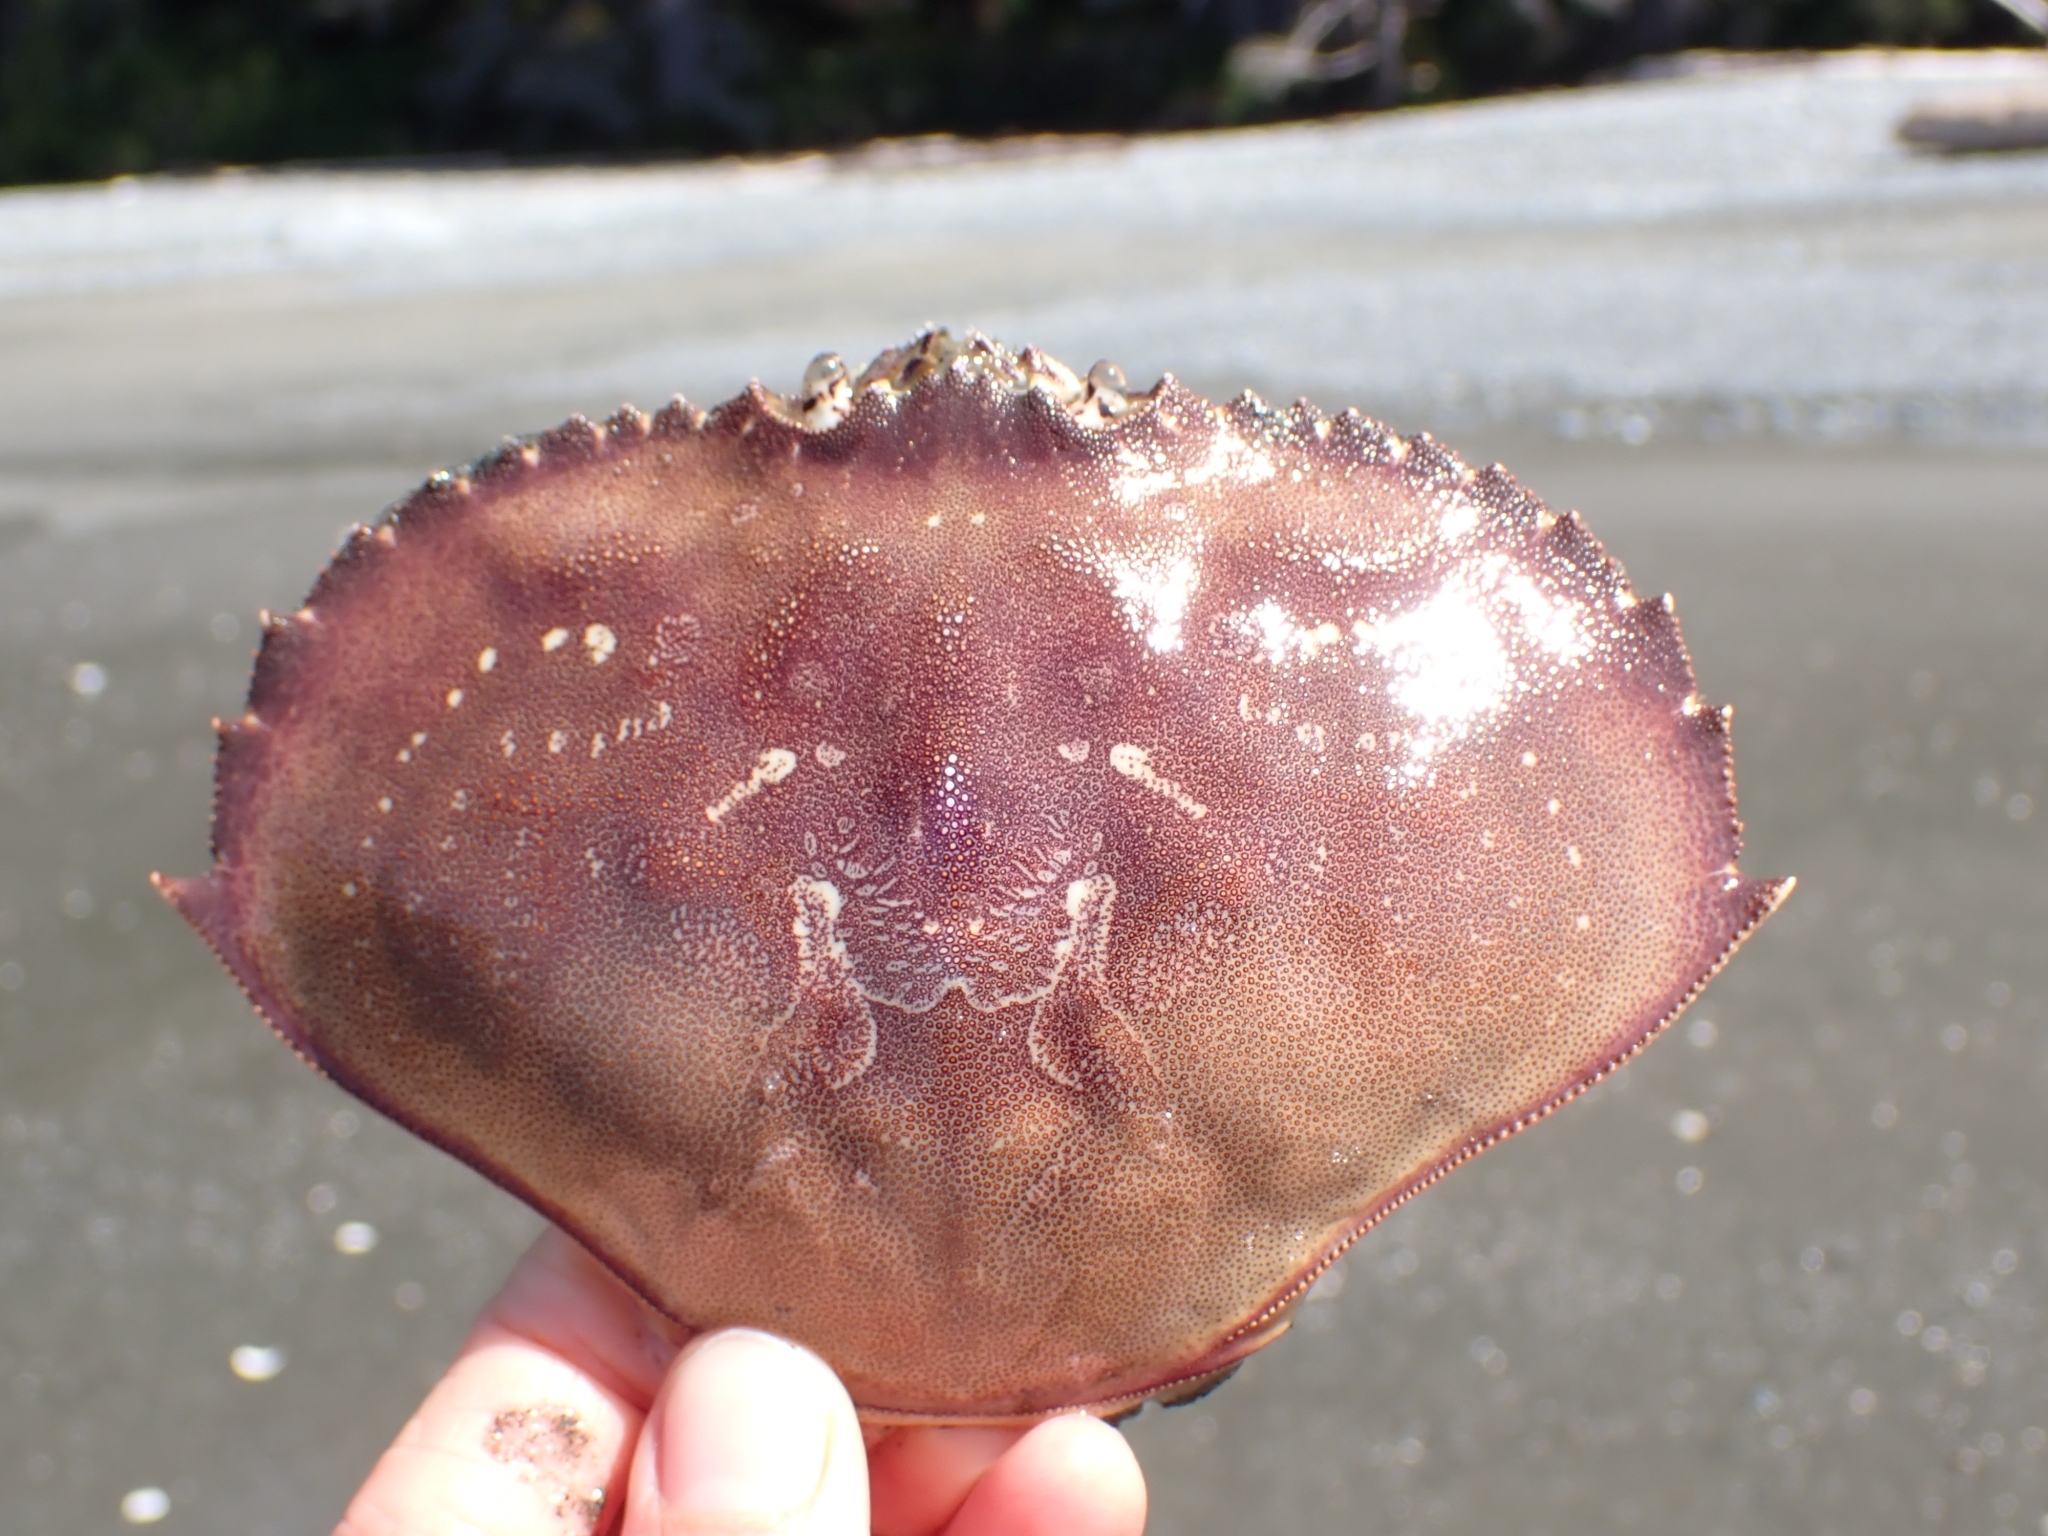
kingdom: Animalia
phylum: Arthropoda
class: Malacostraca
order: Decapoda
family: Cancridae
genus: Metacarcinus
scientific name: Metacarcinus magister
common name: Californian crab
